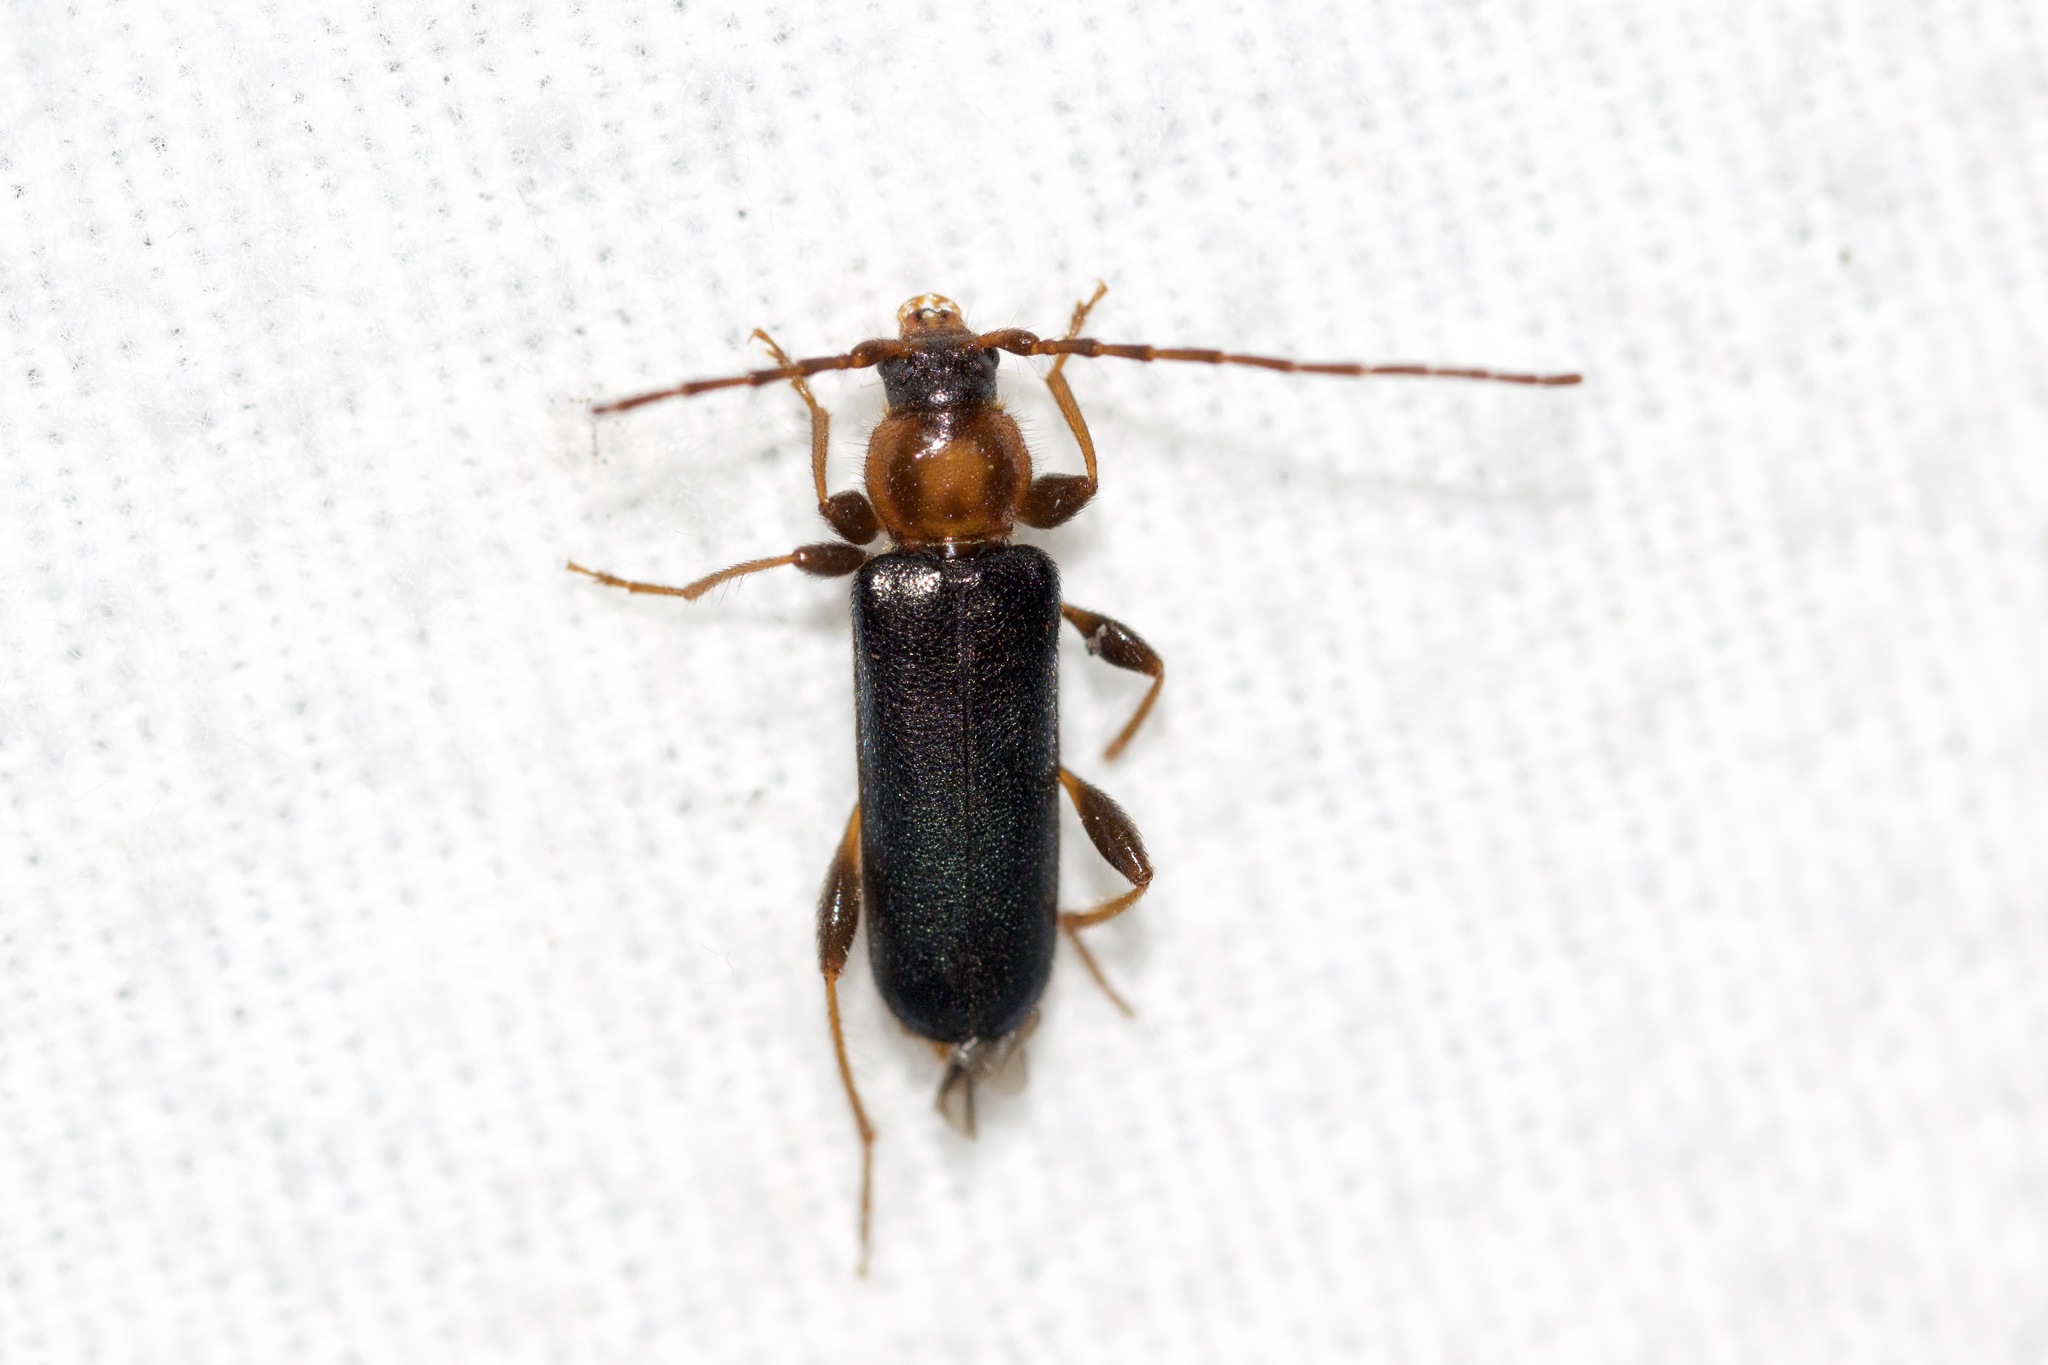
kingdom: Animalia
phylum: Arthropoda
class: Insecta
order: Coleoptera
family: Cerambycidae
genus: Phymatodes
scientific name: Phymatodes testaceus
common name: Long-horned beetle
